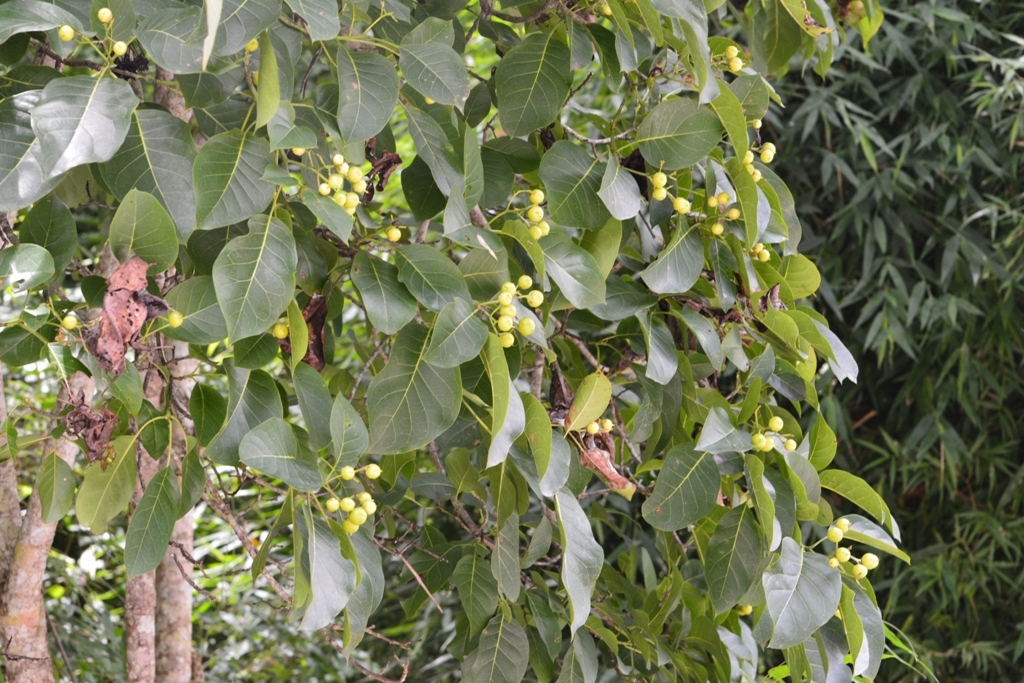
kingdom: Plantae
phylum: Tracheophyta
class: Magnoliopsida
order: Boraginales
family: Cordiaceae
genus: Cordia
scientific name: Cordia dentata
